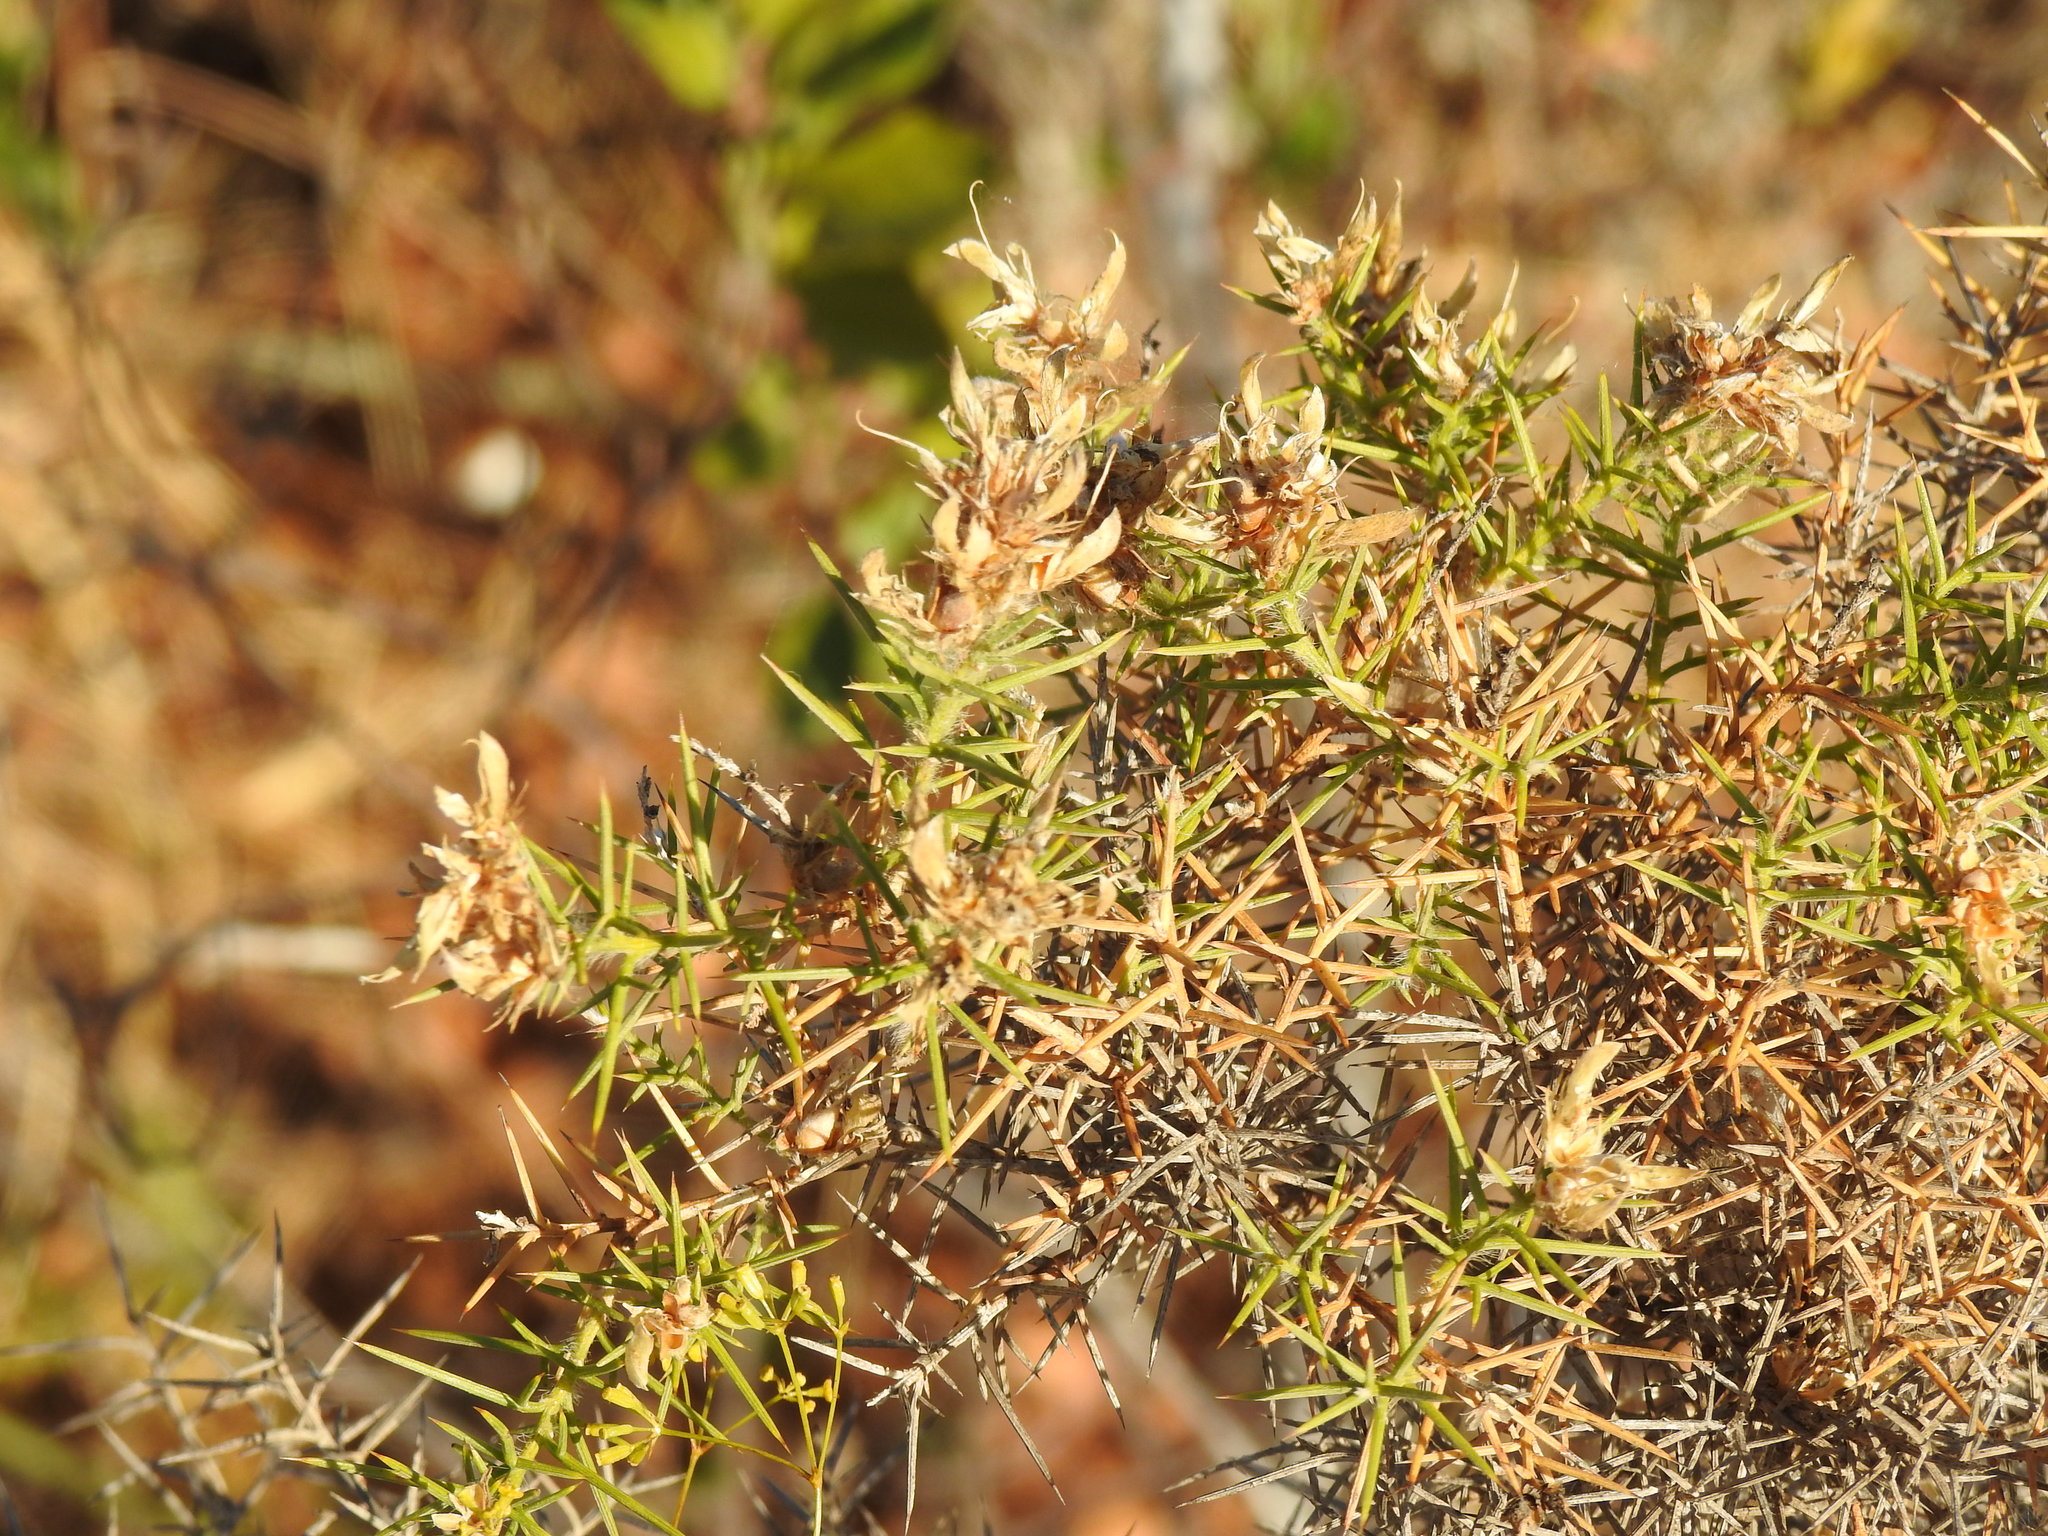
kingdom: Plantae
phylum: Tracheophyta
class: Magnoliopsida
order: Fabales
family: Fabaceae
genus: Genista
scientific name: Genista hirsuta
